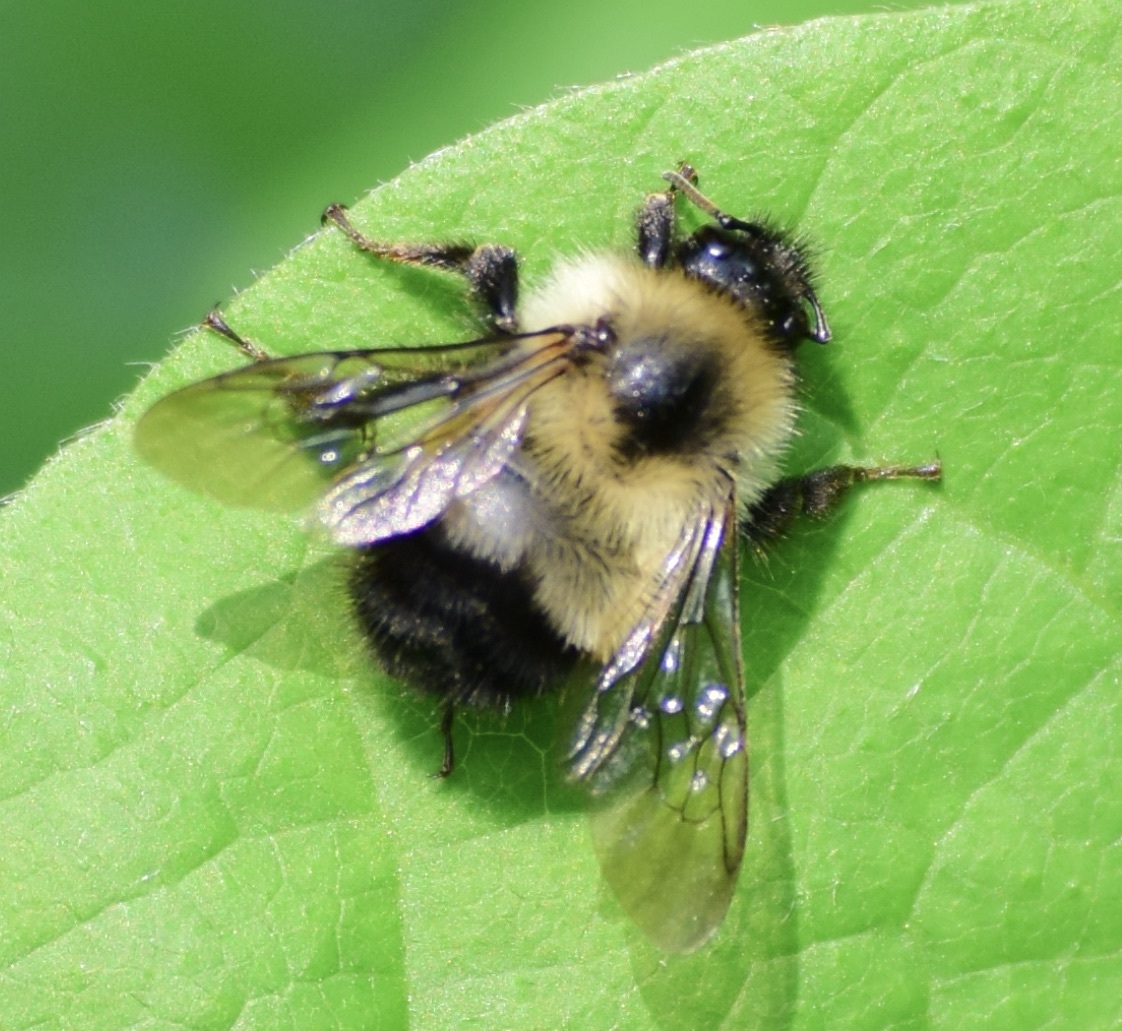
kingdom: Animalia
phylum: Arthropoda
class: Insecta
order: Hymenoptera
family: Apidae
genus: Pyrobombus
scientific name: Pyrobombus
